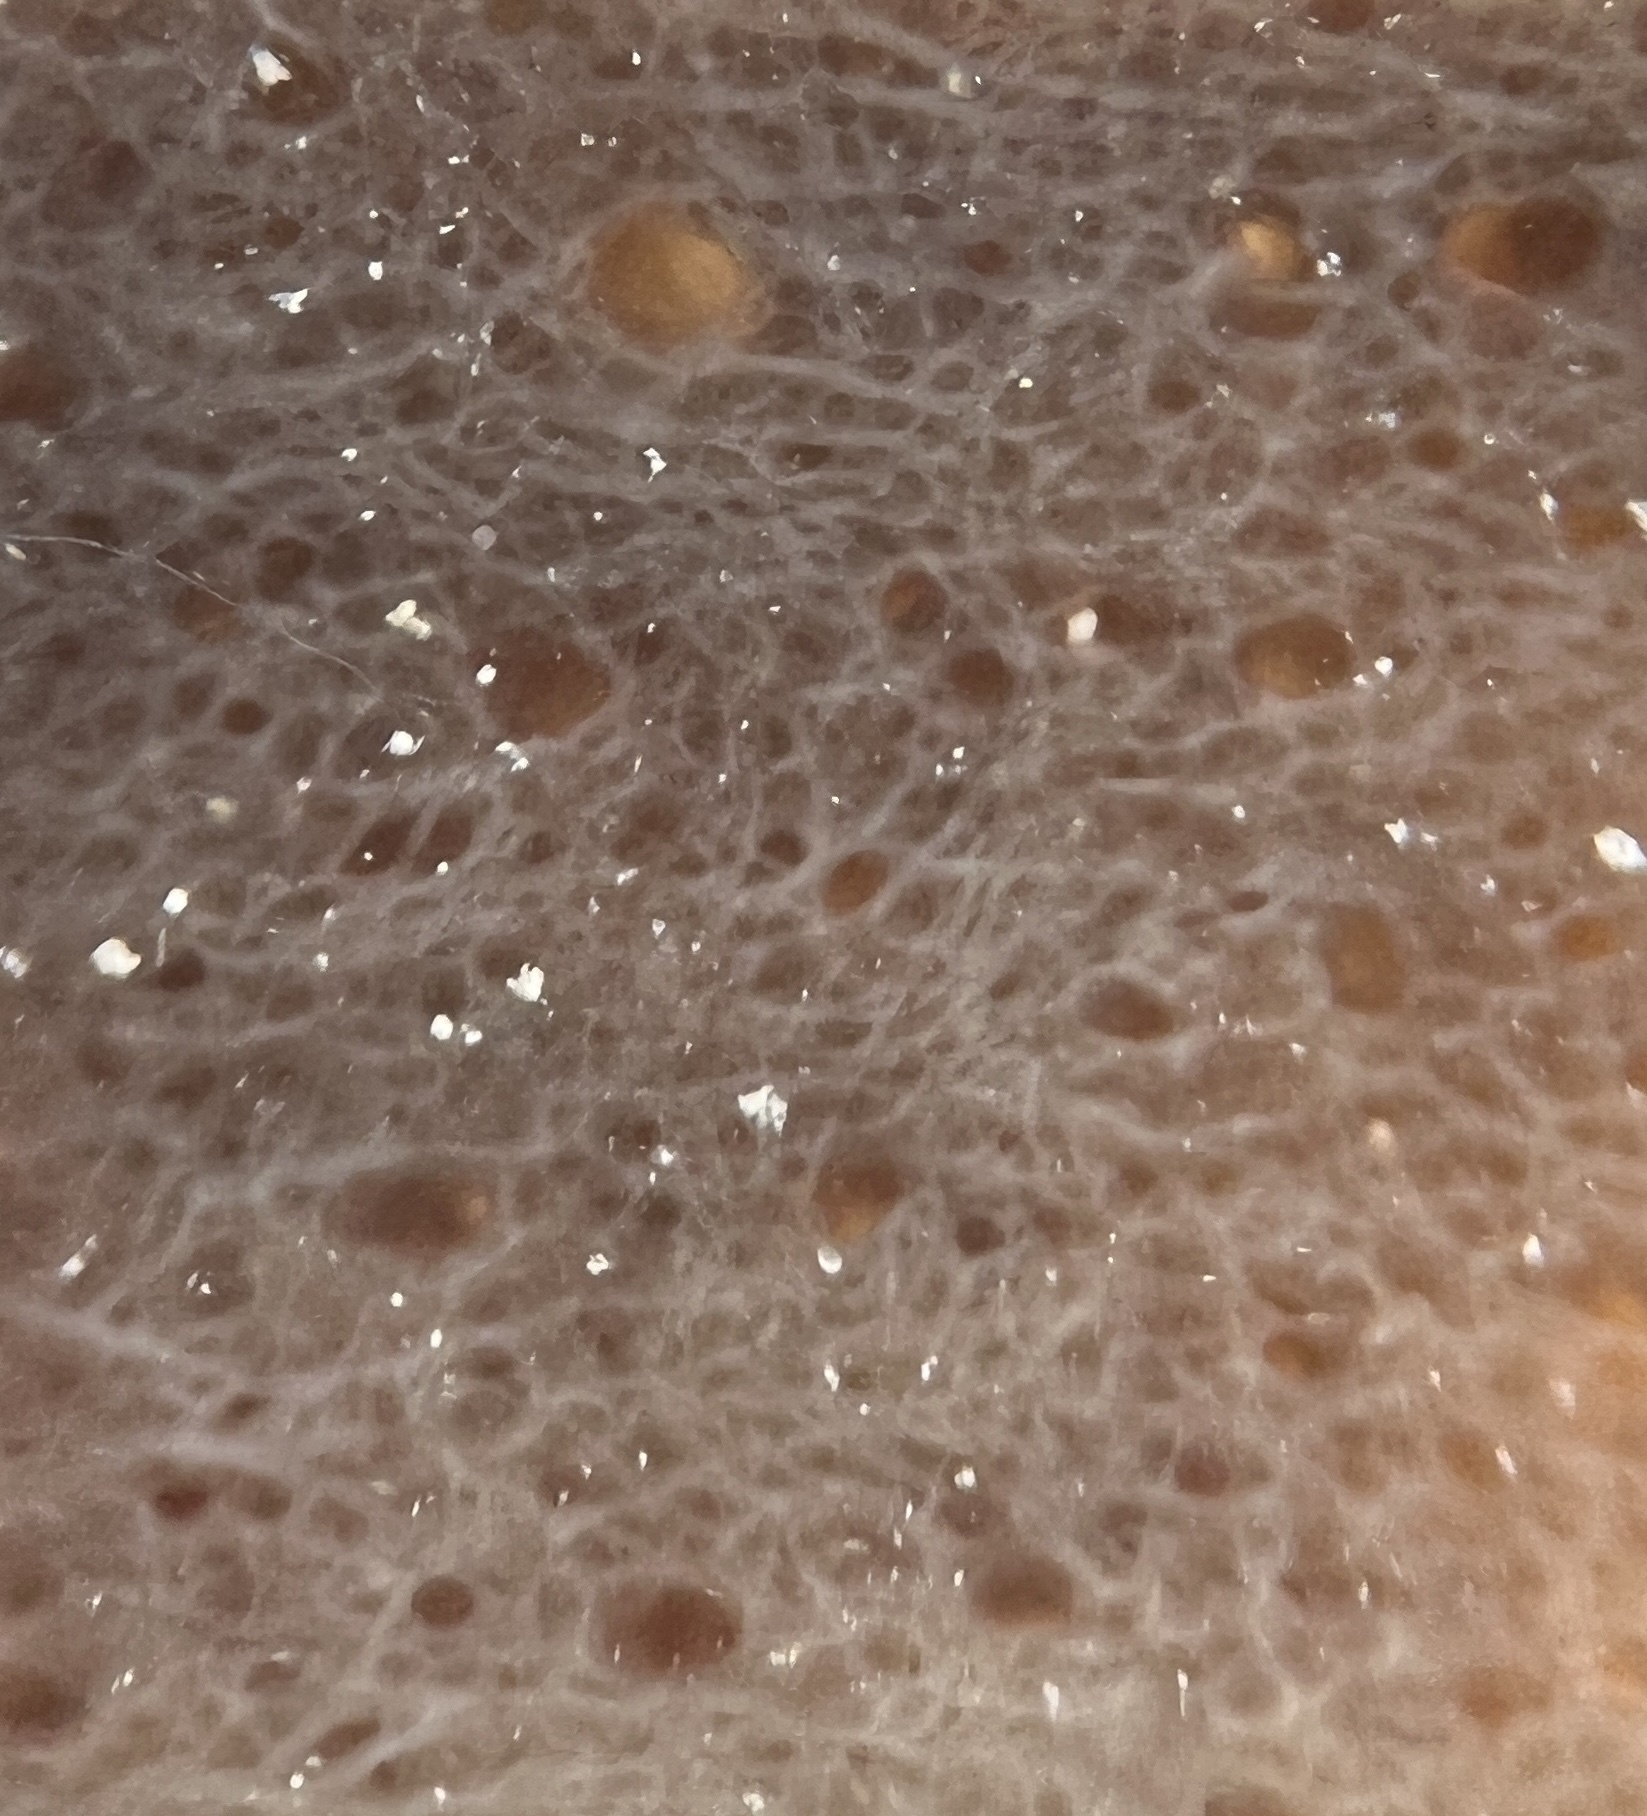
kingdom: Animalia
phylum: Porifera
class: Demospongiae
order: Haplosclerida
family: Callyspongiidae
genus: Callyspongia
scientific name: Callyspongia aculeata
